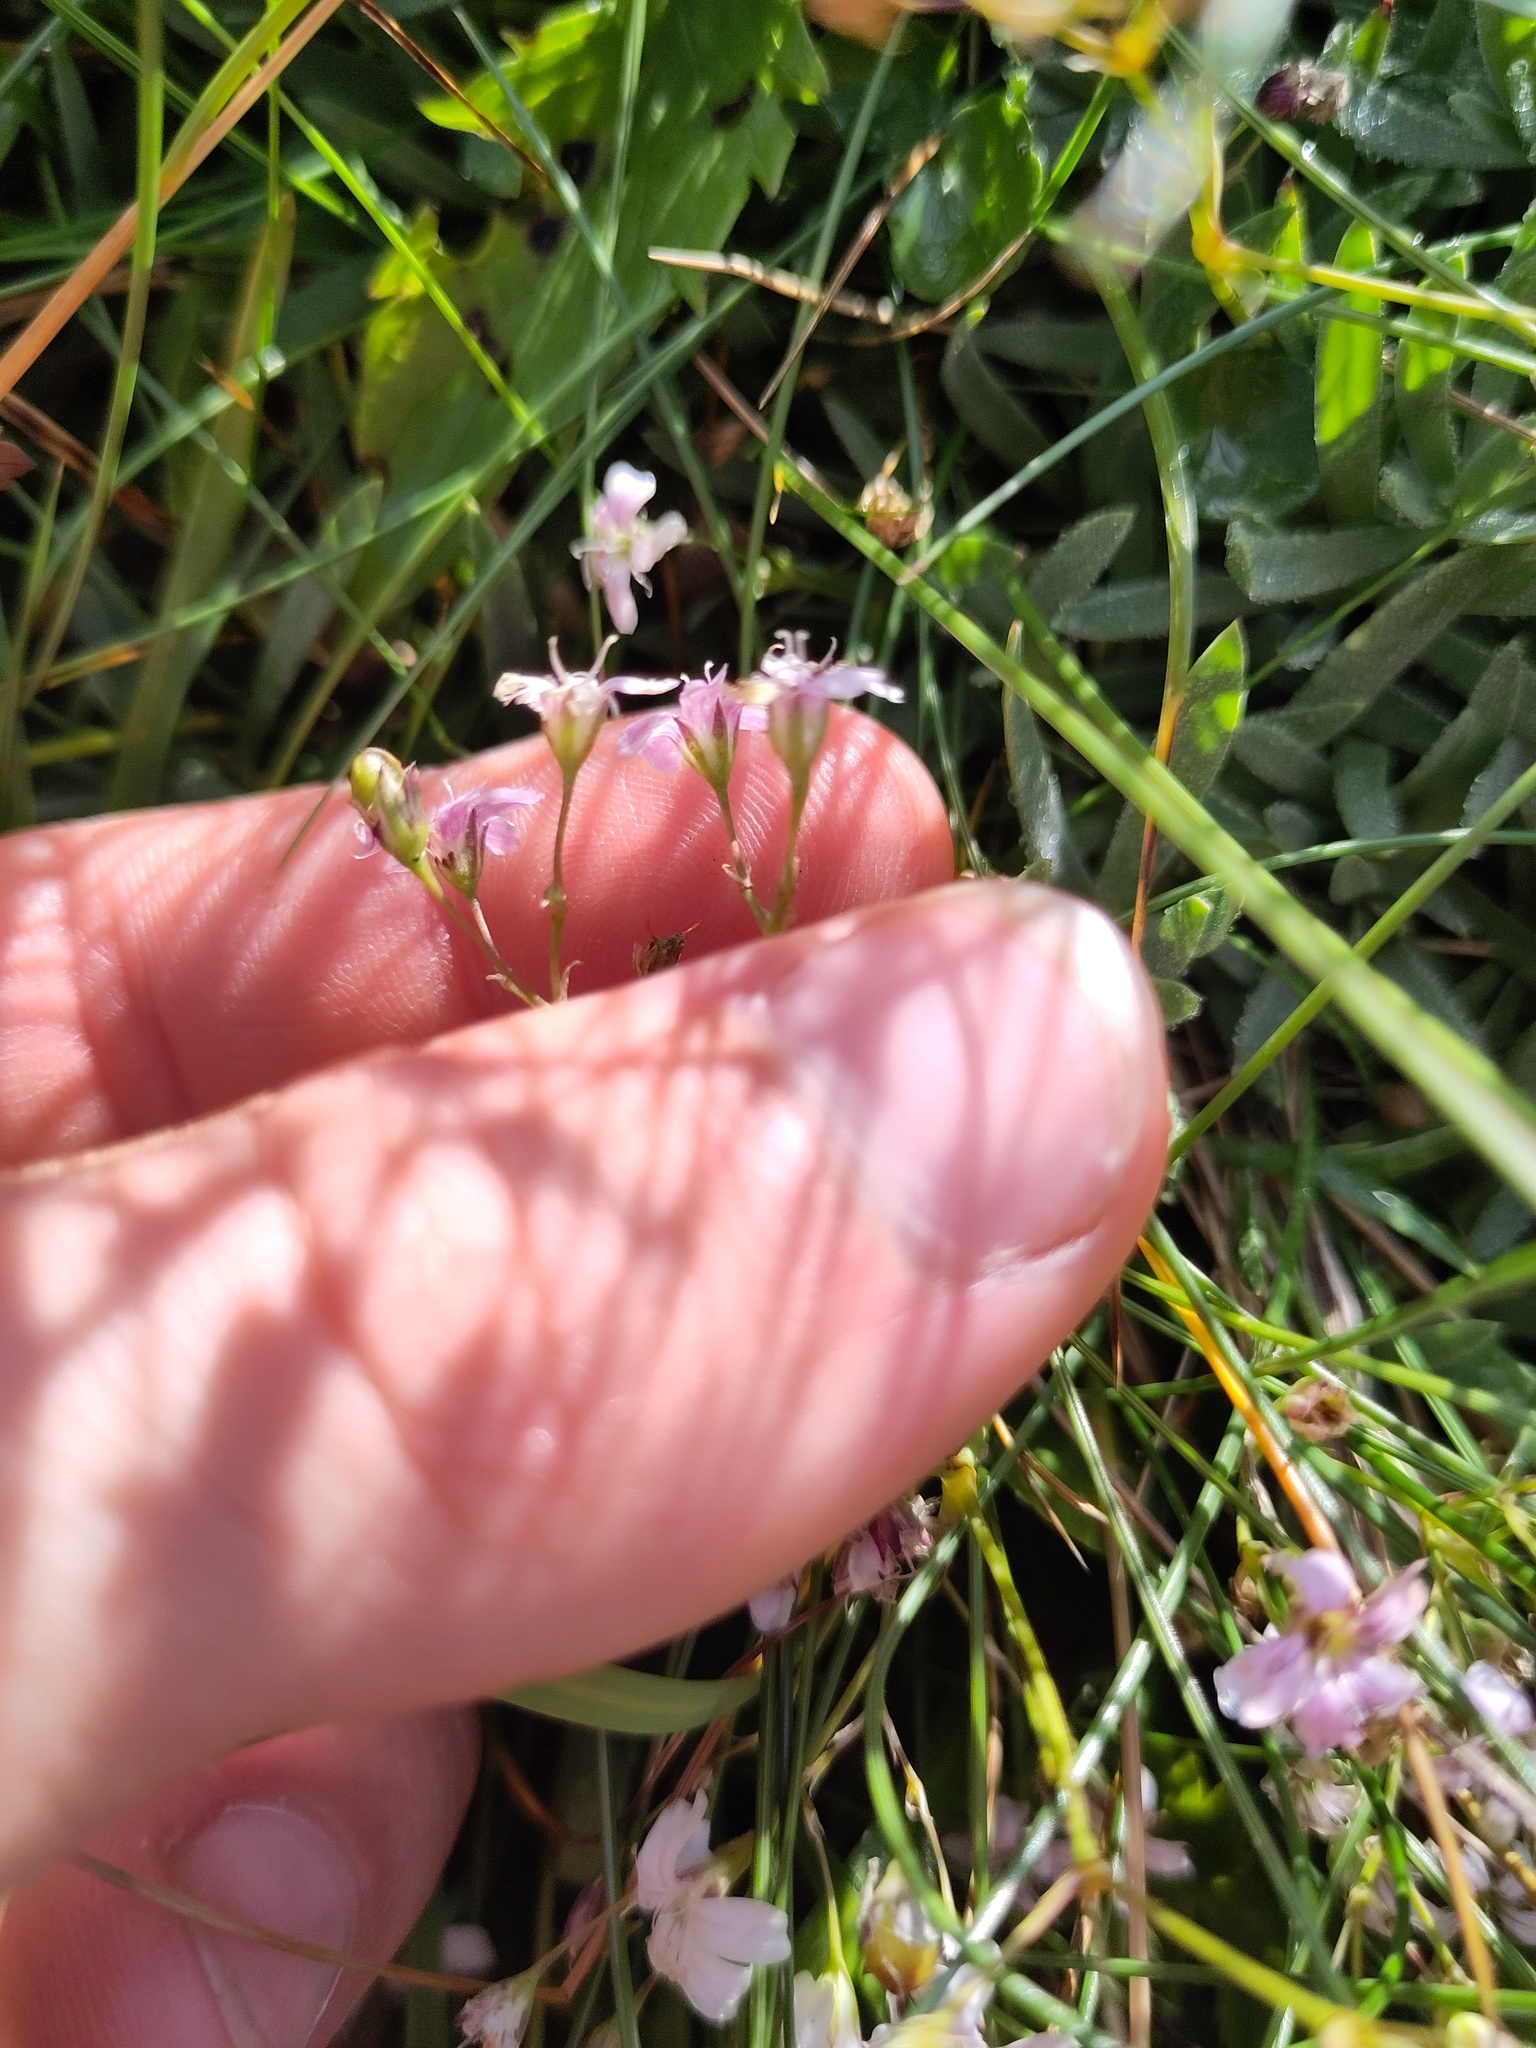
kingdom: Plantae
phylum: Tracheophyta
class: Magnoliopsida
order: Caryophyllales
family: Caryophyllaceae
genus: Gypsophila
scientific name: Gypsophila repens
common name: Creeping baby's-breath
